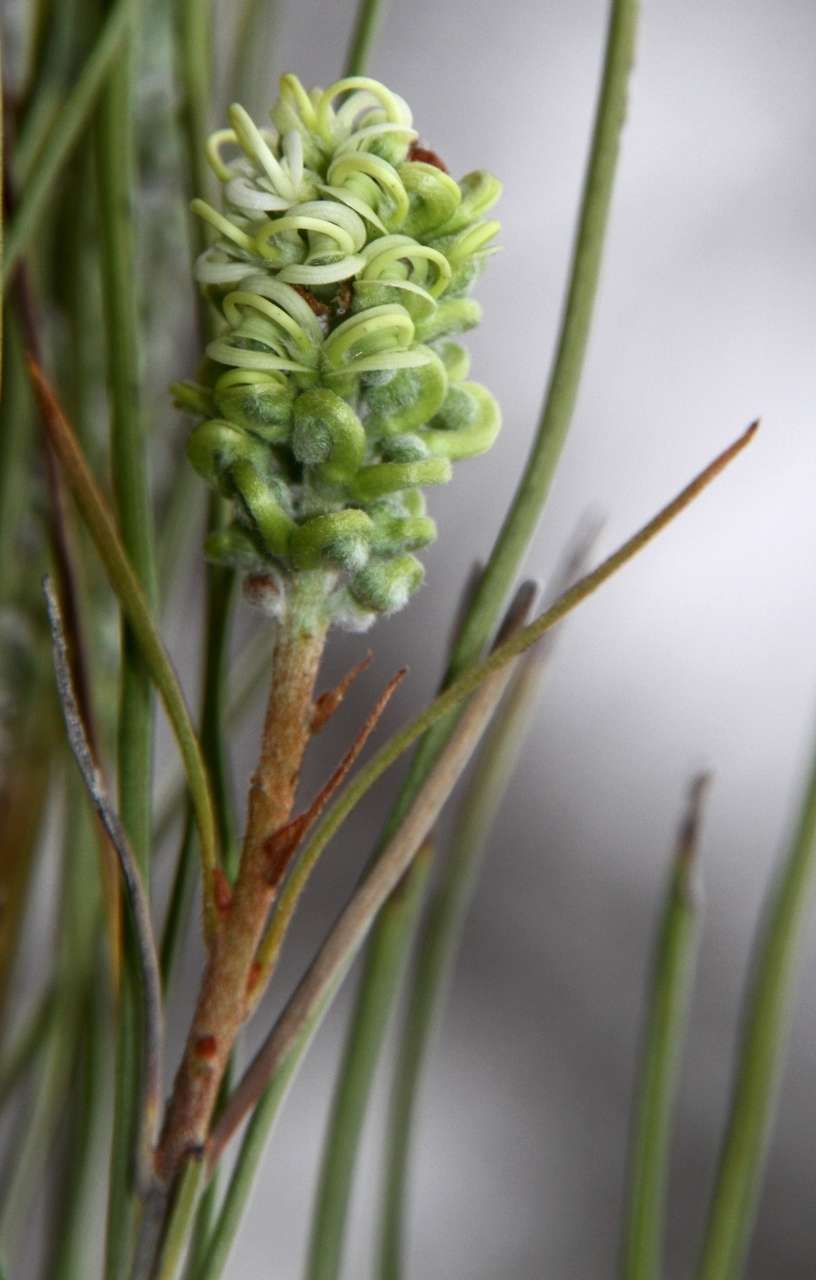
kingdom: Plantae
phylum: Tracheophyta
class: Magnoliopsida
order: Proteales
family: Proteaceae
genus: Grevillea
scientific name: Grevillea pterosperma
